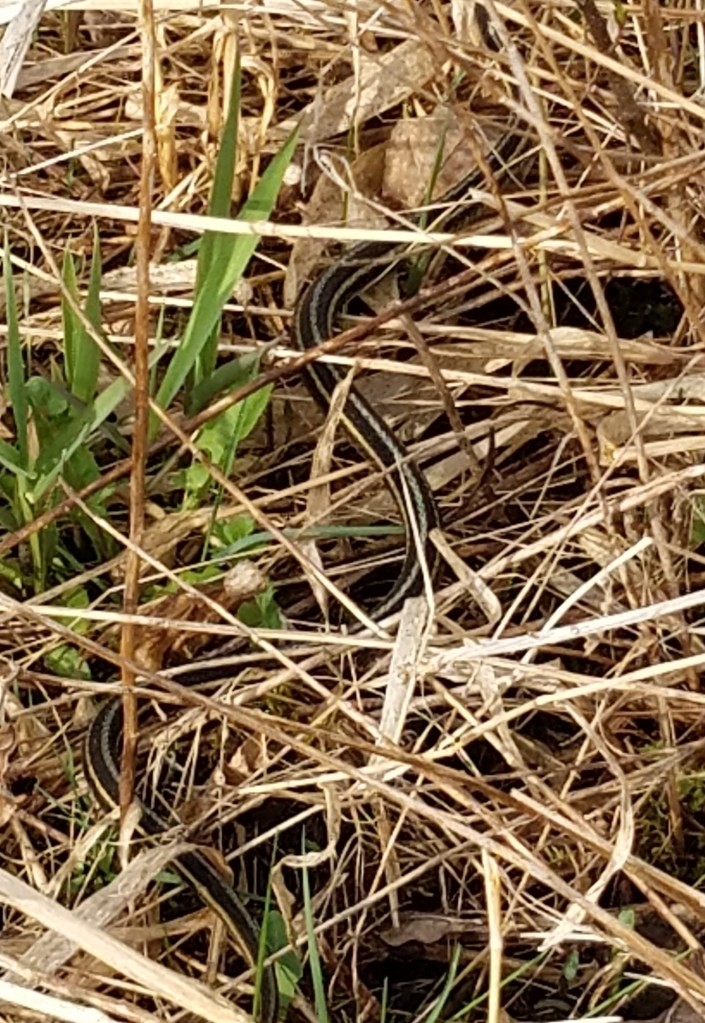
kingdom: Animalia
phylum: Chordata
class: Squamata
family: Colubridae
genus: Thamnophis
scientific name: Thamnophis sirtalis
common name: Common garter snake
